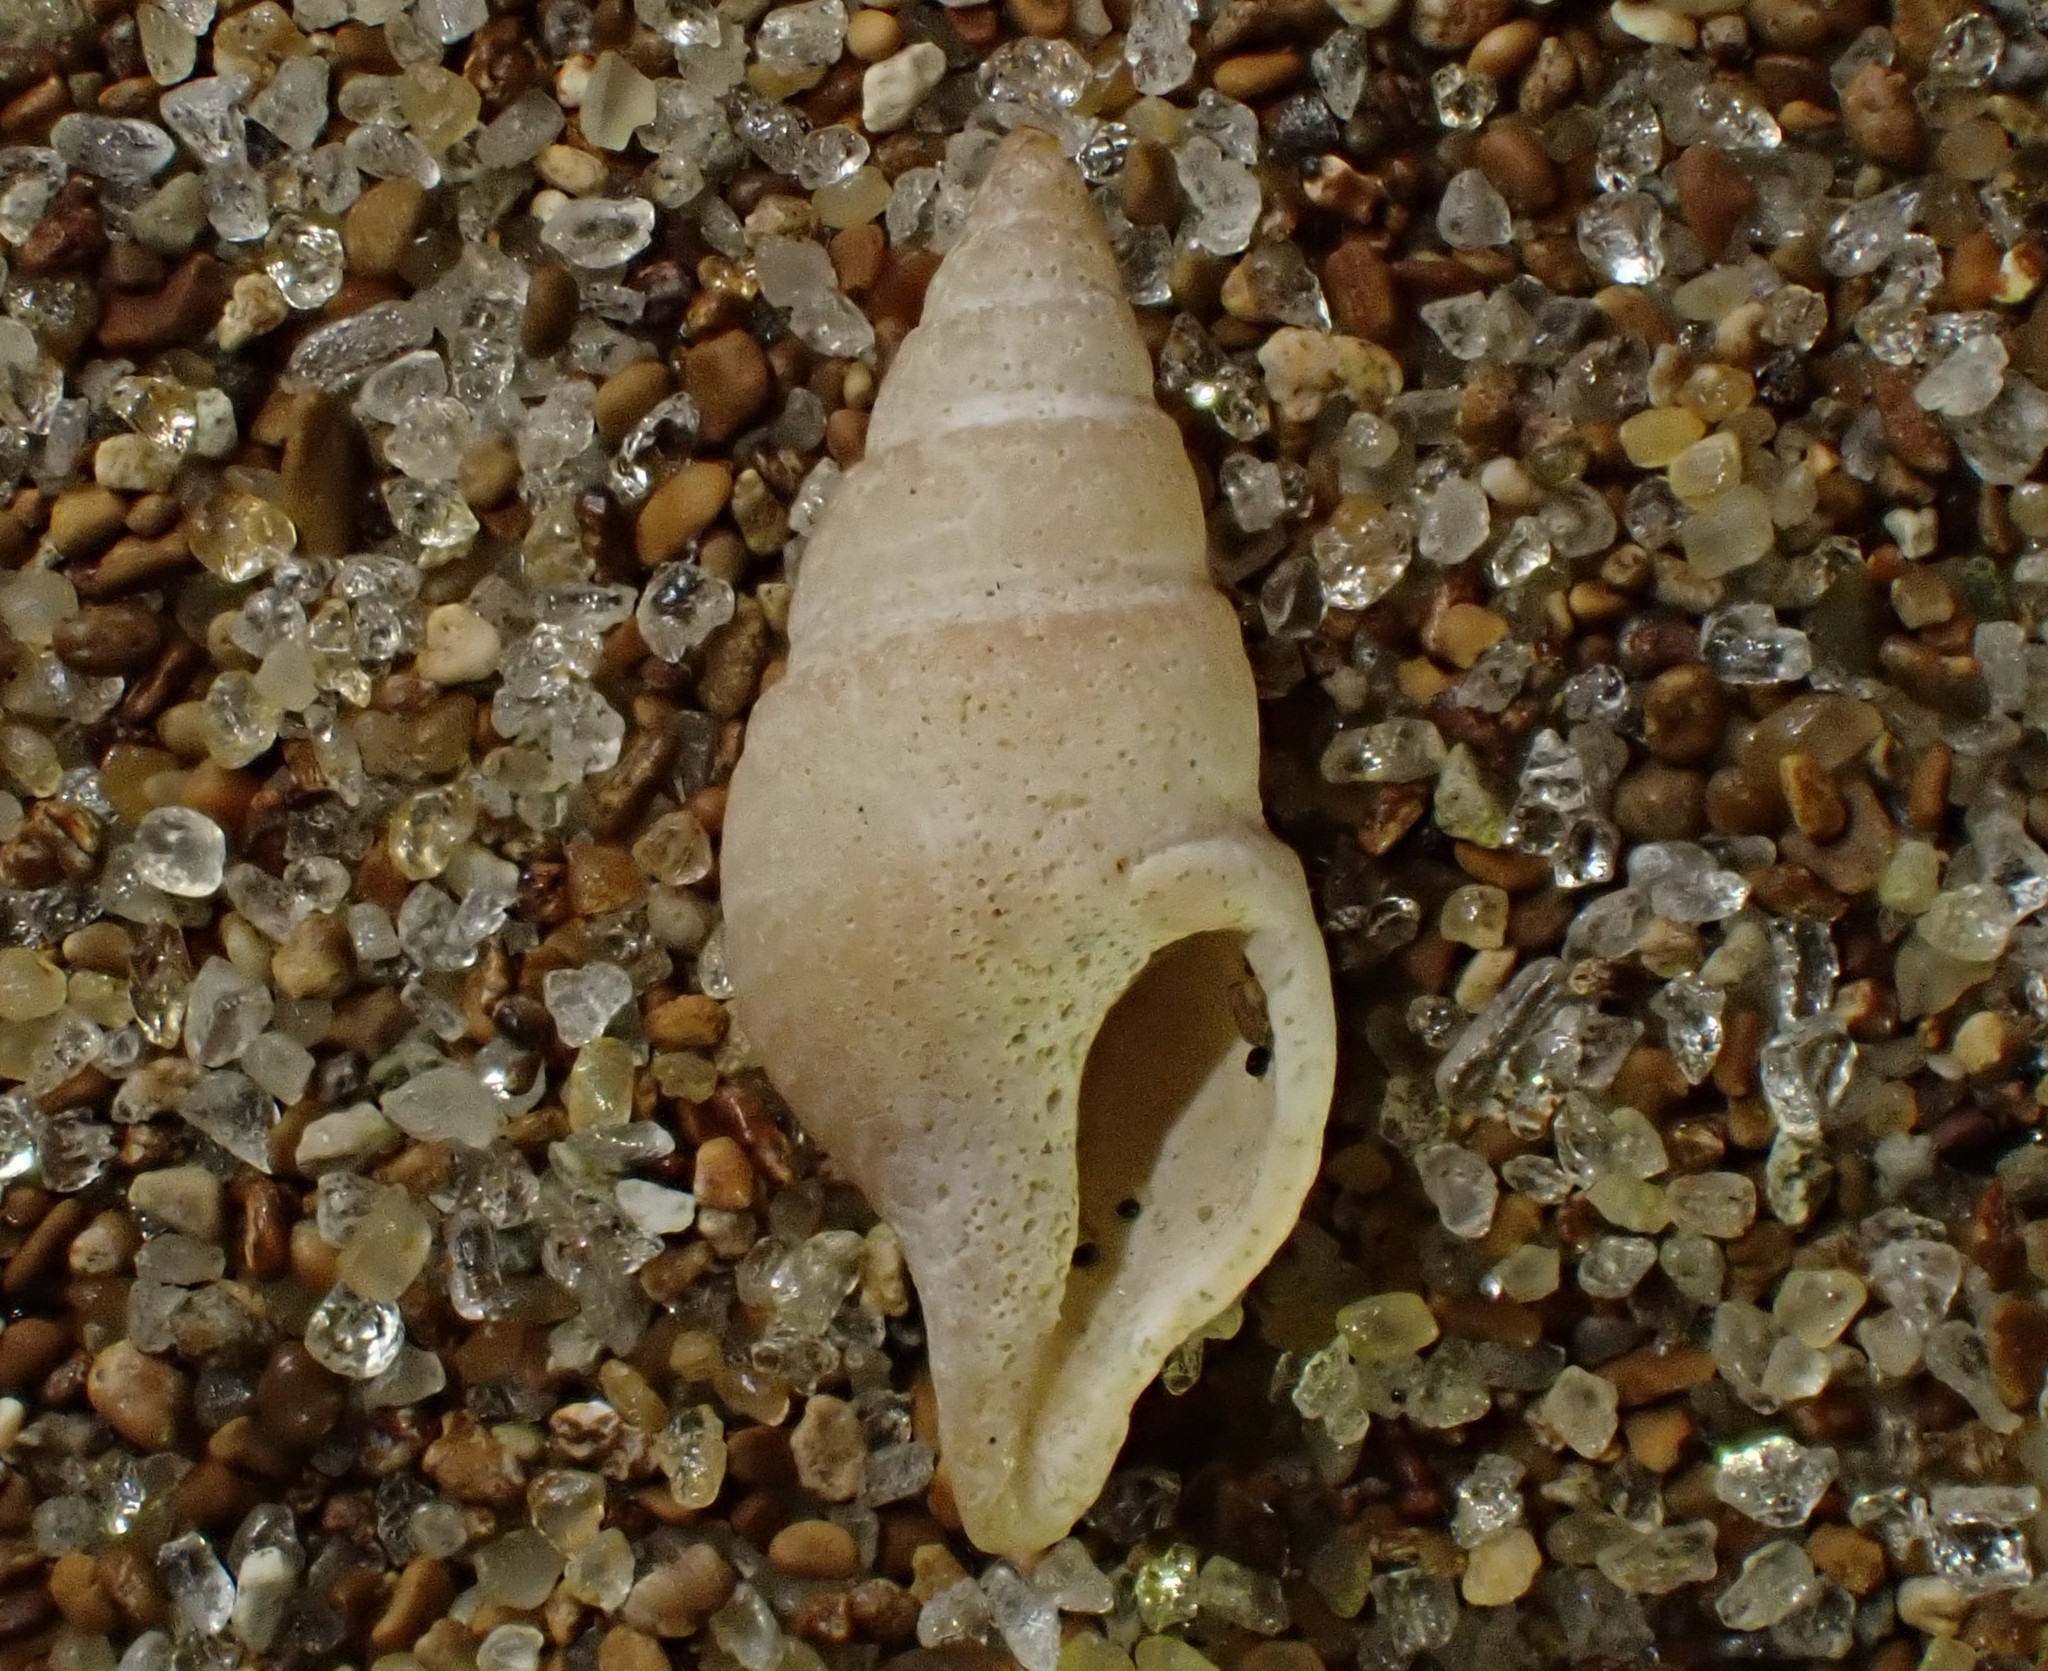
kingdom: Animalia
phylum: Mollusca
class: Gastropoda
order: Neogastropoda
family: Borsoniidae
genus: Phenatoma
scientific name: Phenatoma zealandicum
